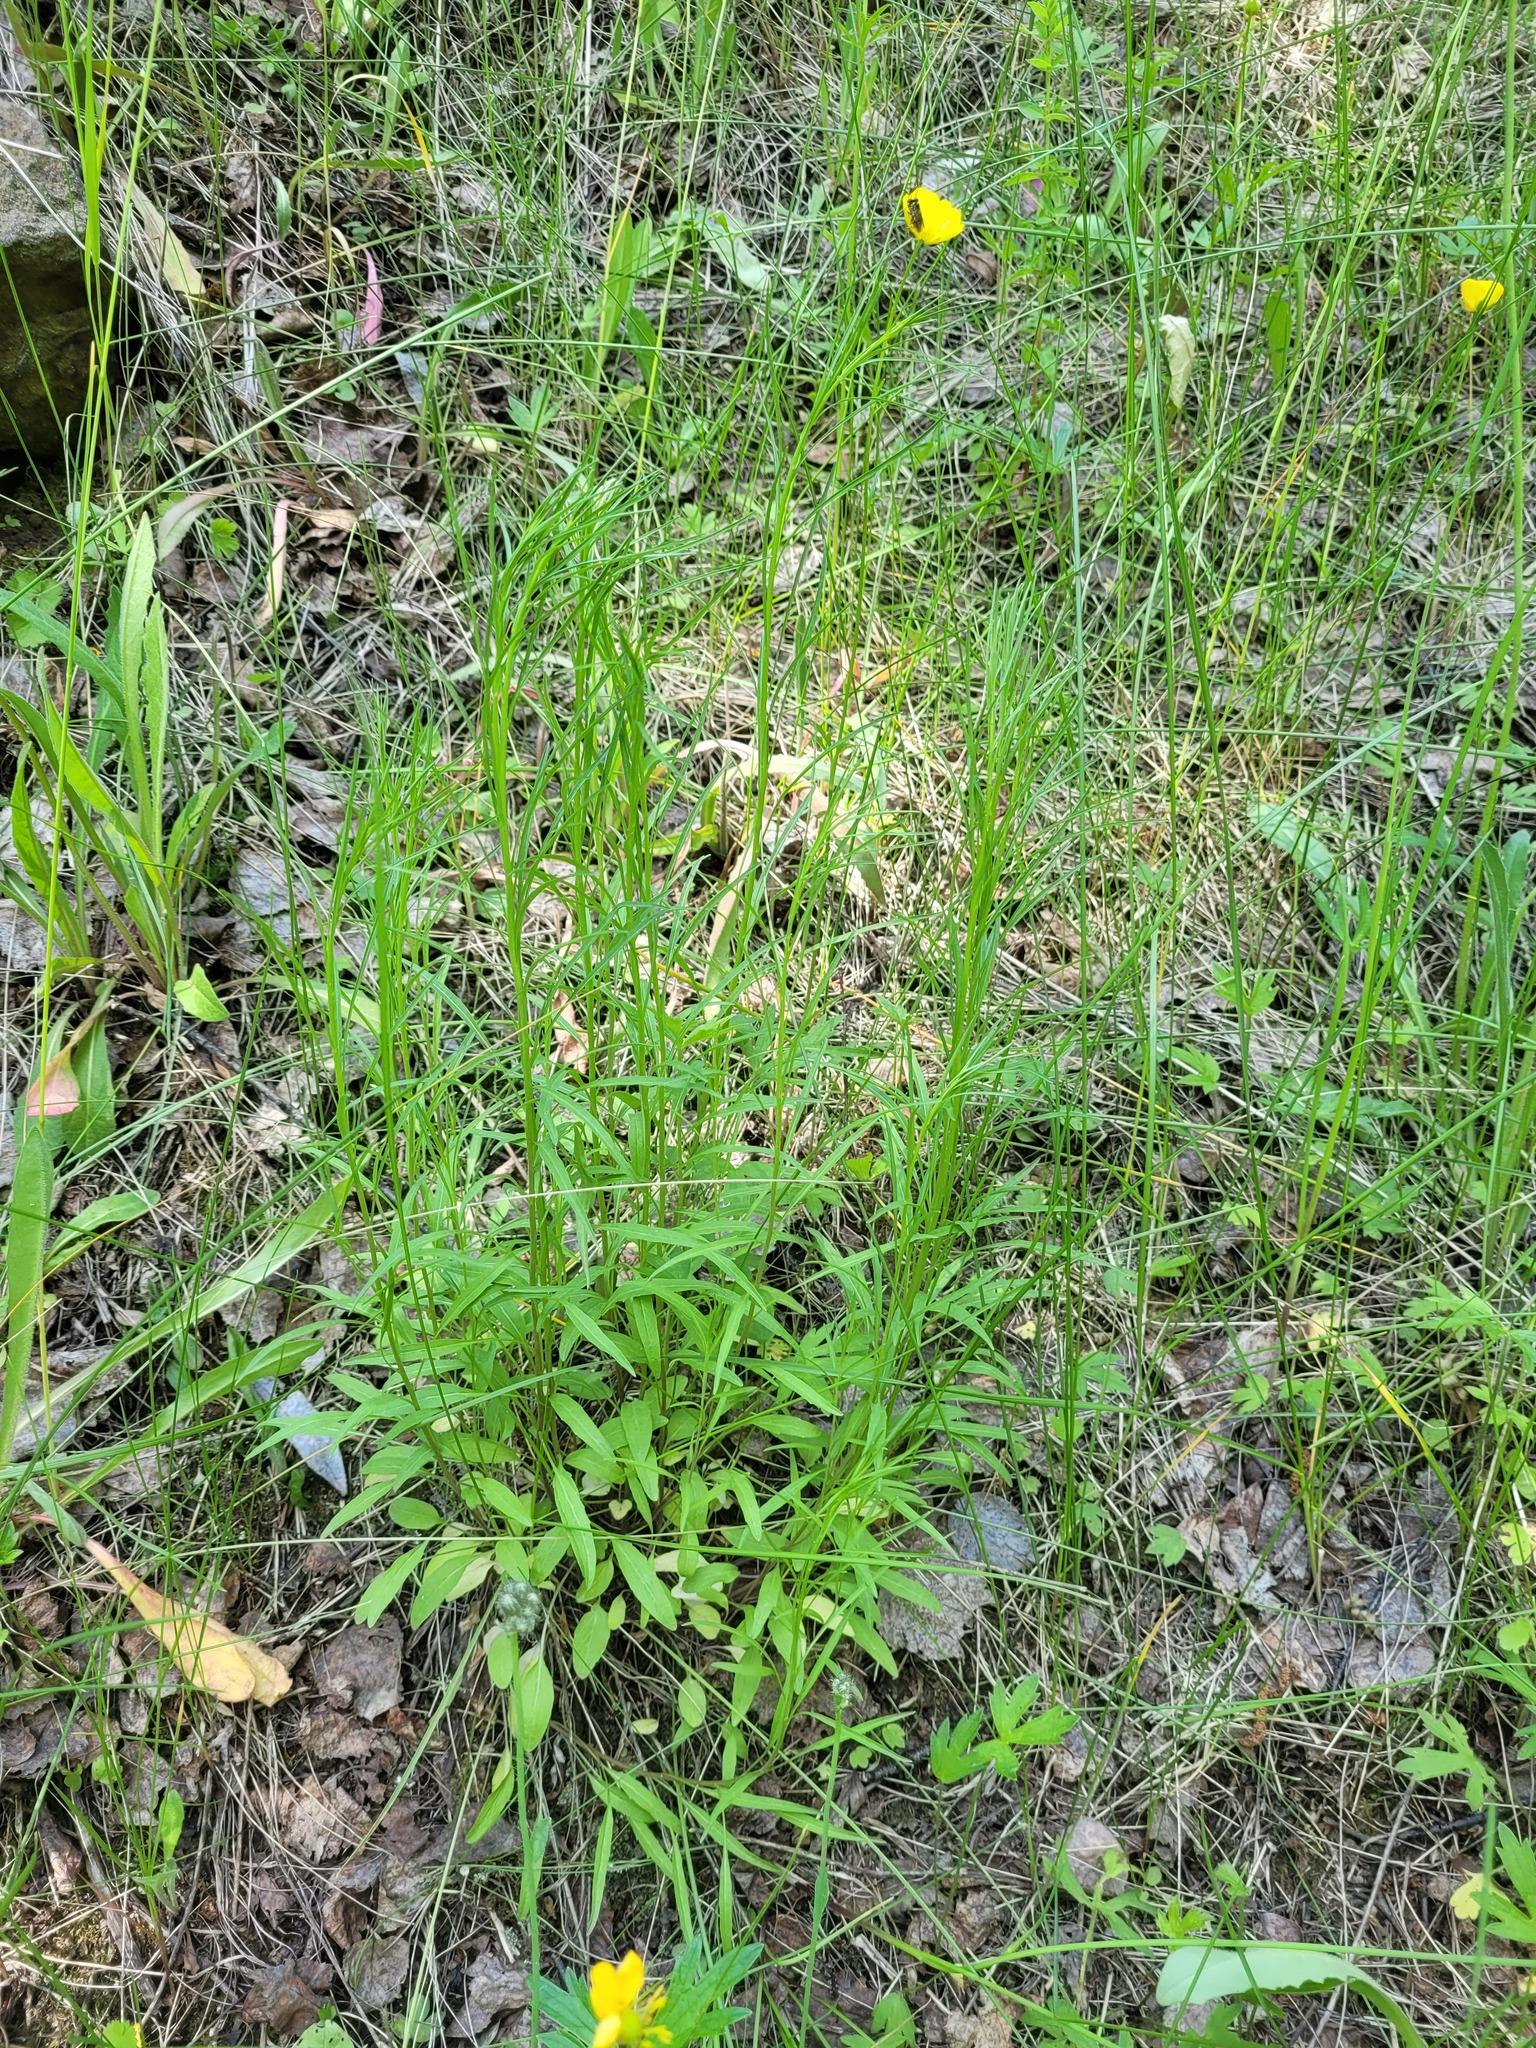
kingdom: Plantae
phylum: Tracheophyta
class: Magnoliopsida
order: Asterales
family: Campanulaceae
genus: Campanula
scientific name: Campanula rotundifolia
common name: Harebell
